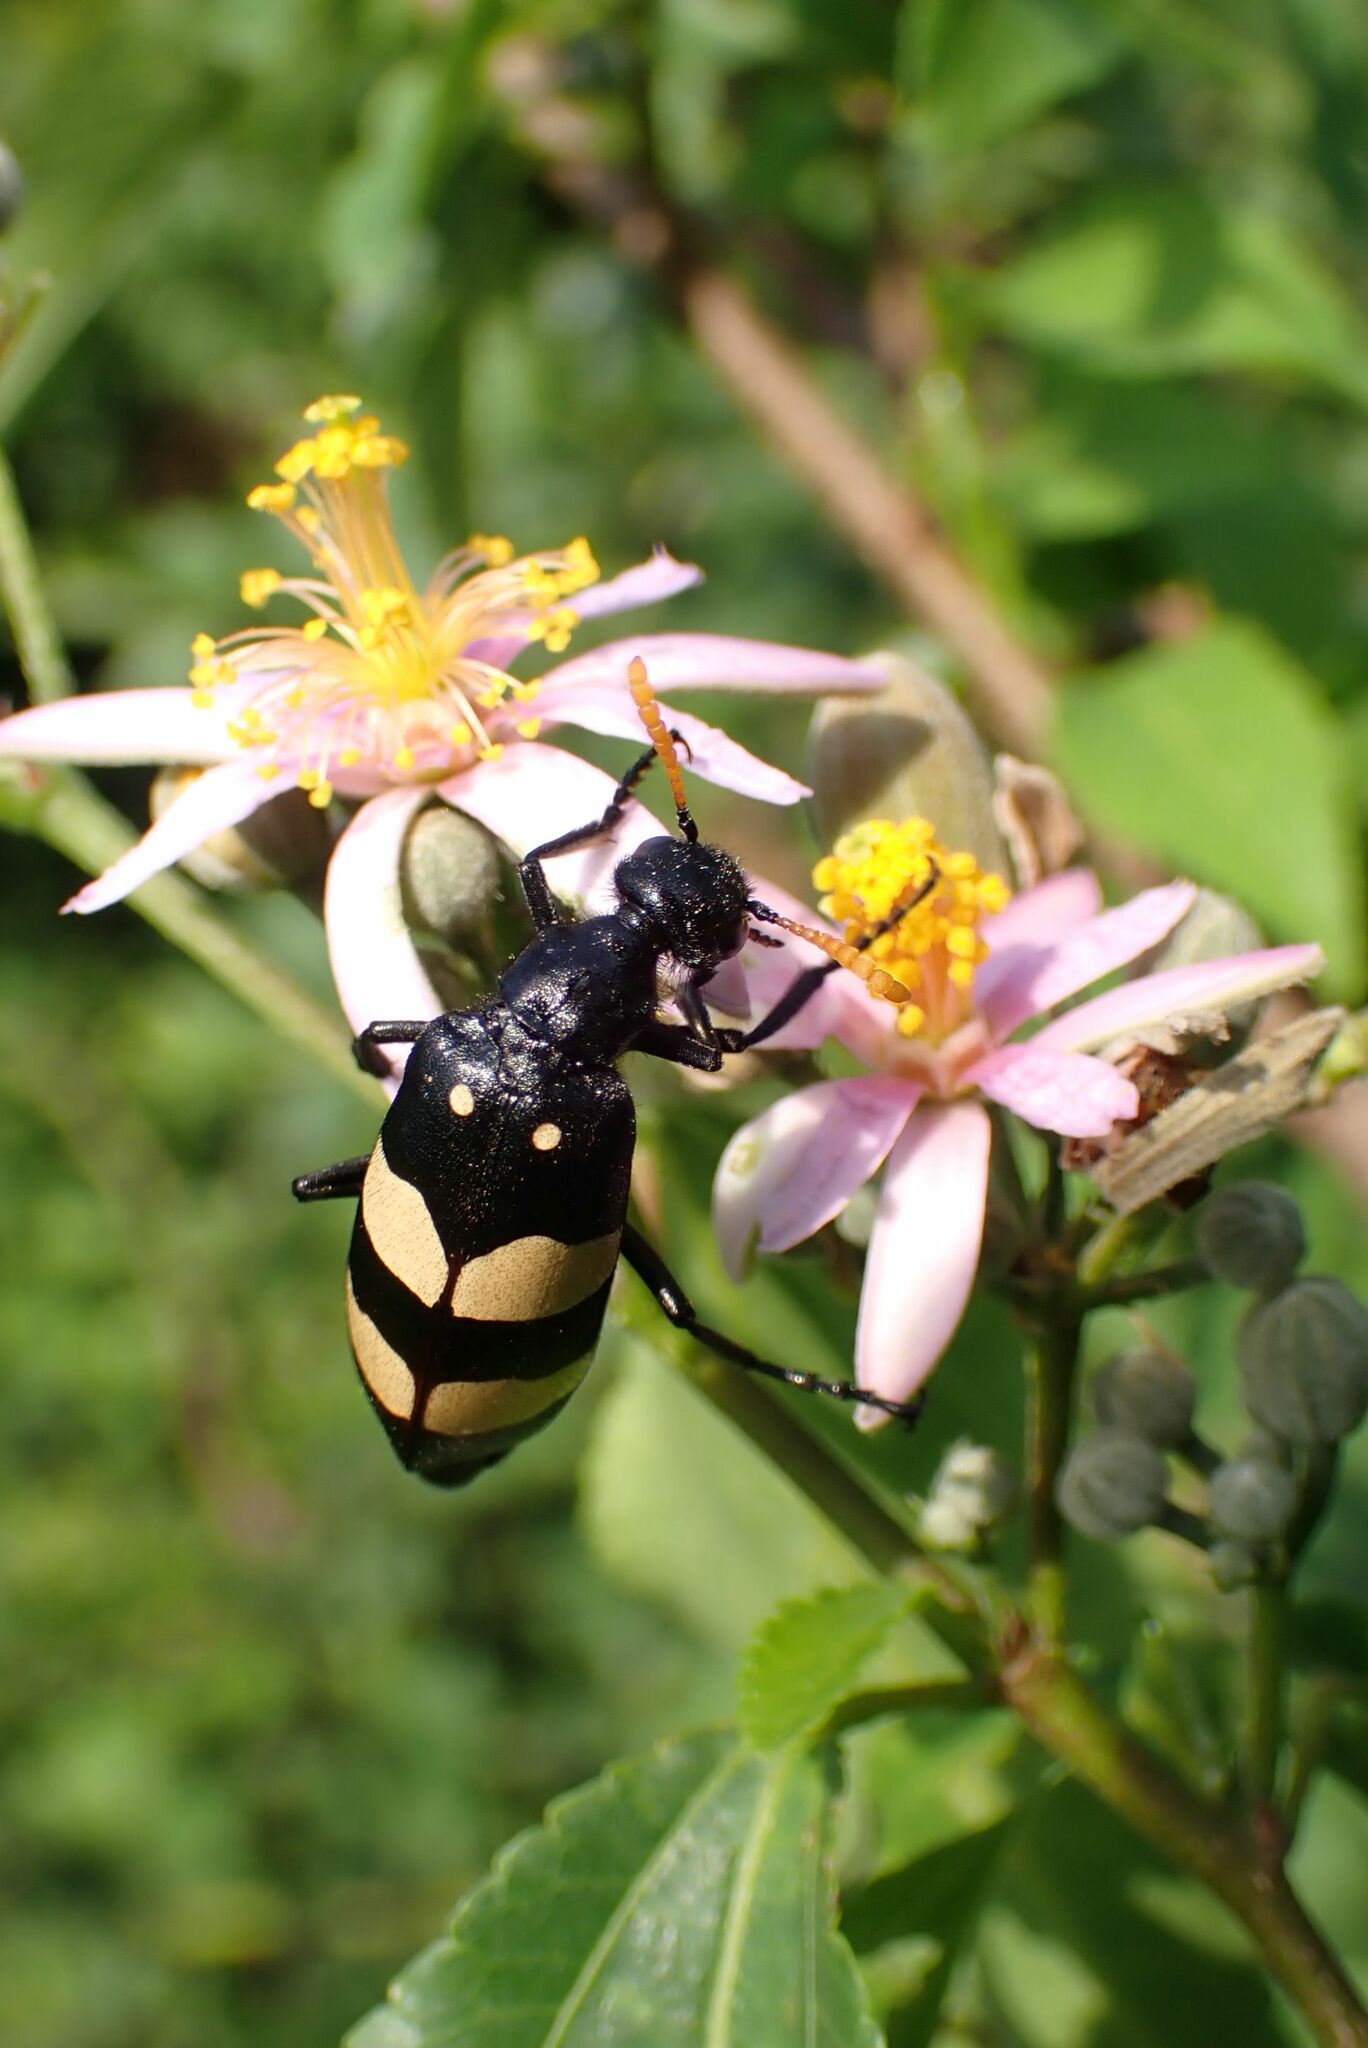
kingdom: Animalia
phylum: Arthropoda
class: Insecta
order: Coleoptera
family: Meloidae
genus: Hycleus
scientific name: Hycleus
